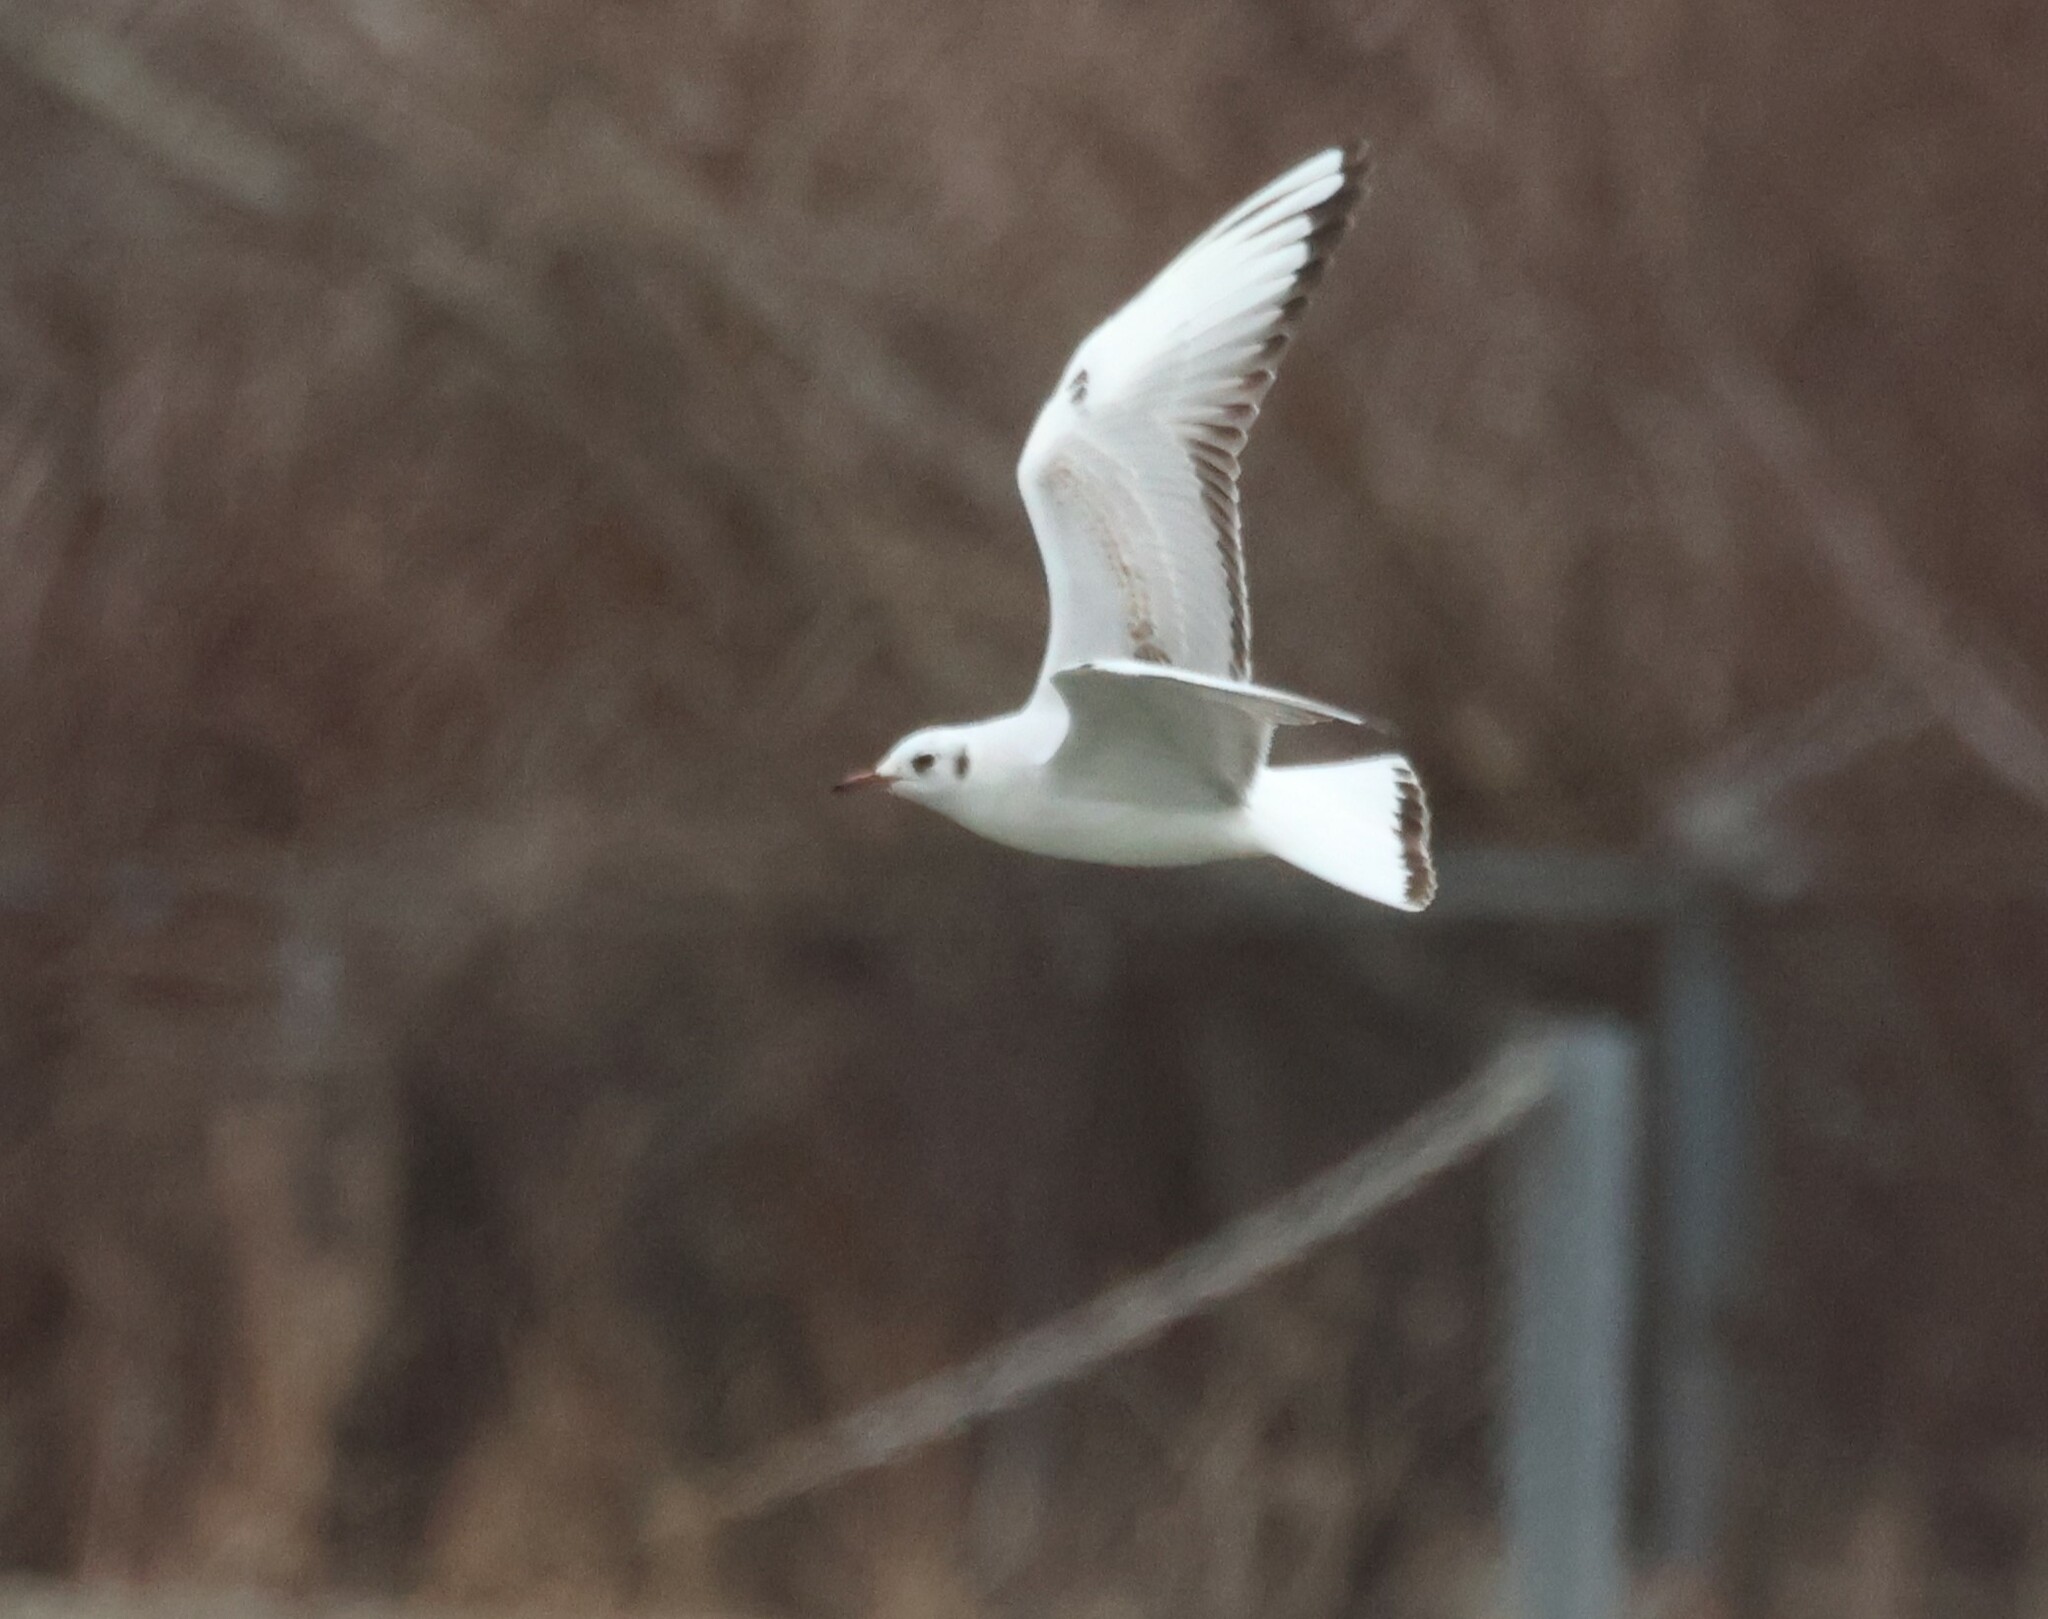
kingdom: Animalia
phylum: Chordata
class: Aves
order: Charadriiformes
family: Laridae
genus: Chroicocephalus
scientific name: Chroicocephalus ridibundus
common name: Black-headed gull
